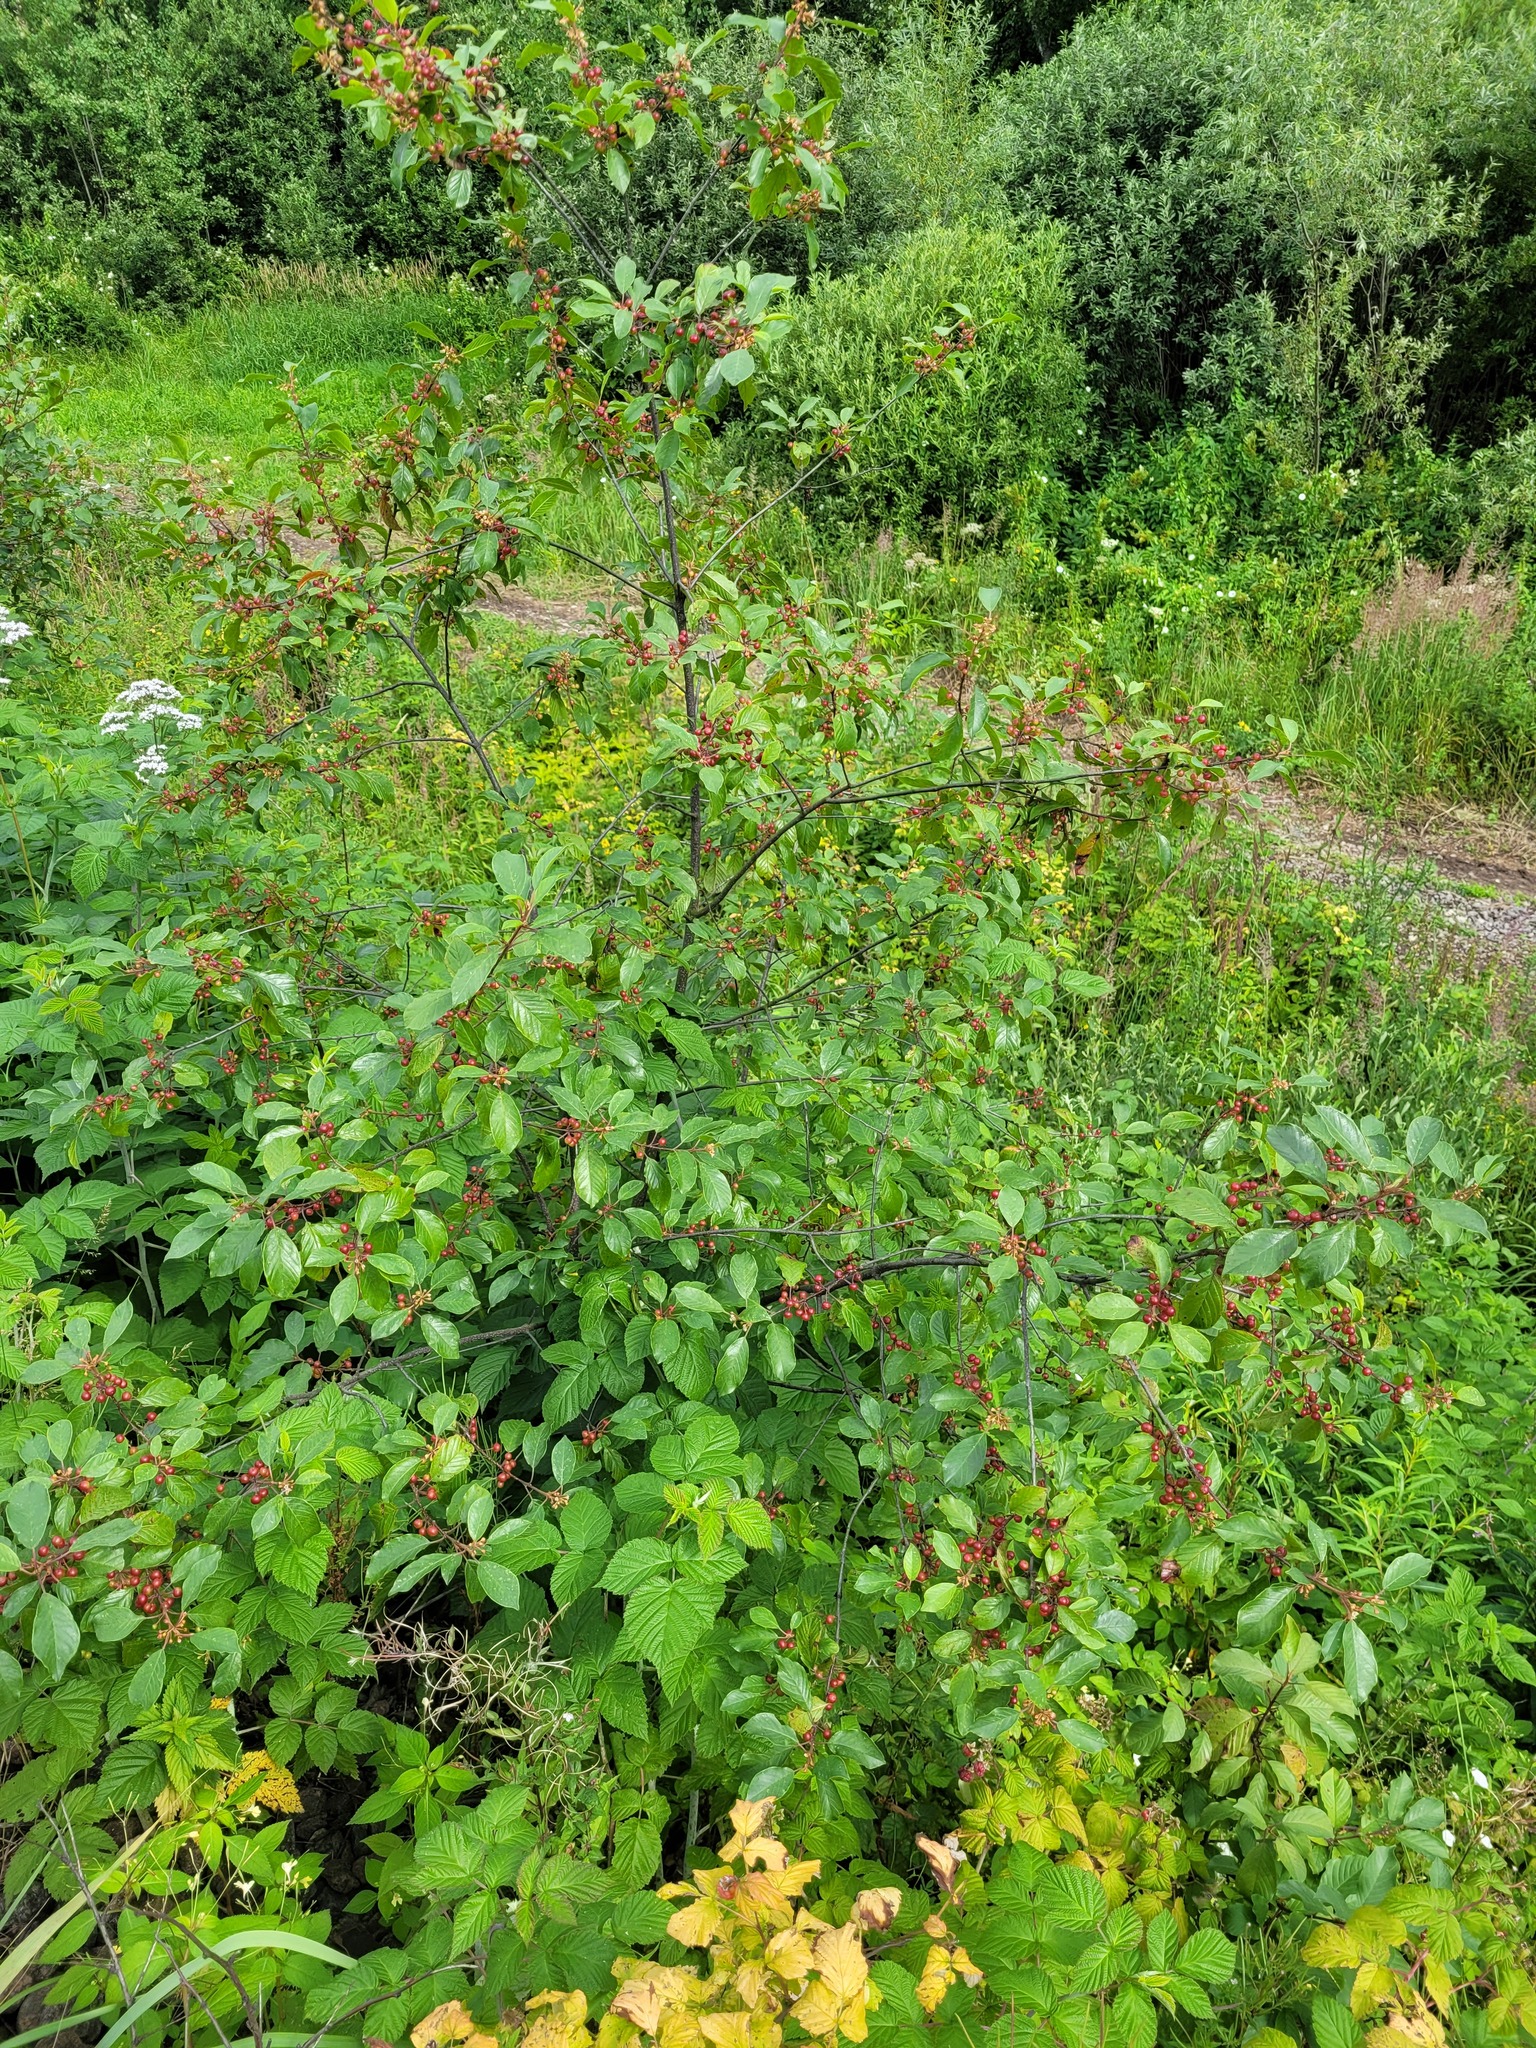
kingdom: Plantae
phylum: Tracheophyta
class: Magnoliopsida
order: Rosales
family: Rhamnaceae
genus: Frangula
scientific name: Frangula alnus
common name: Alder buckthorn
